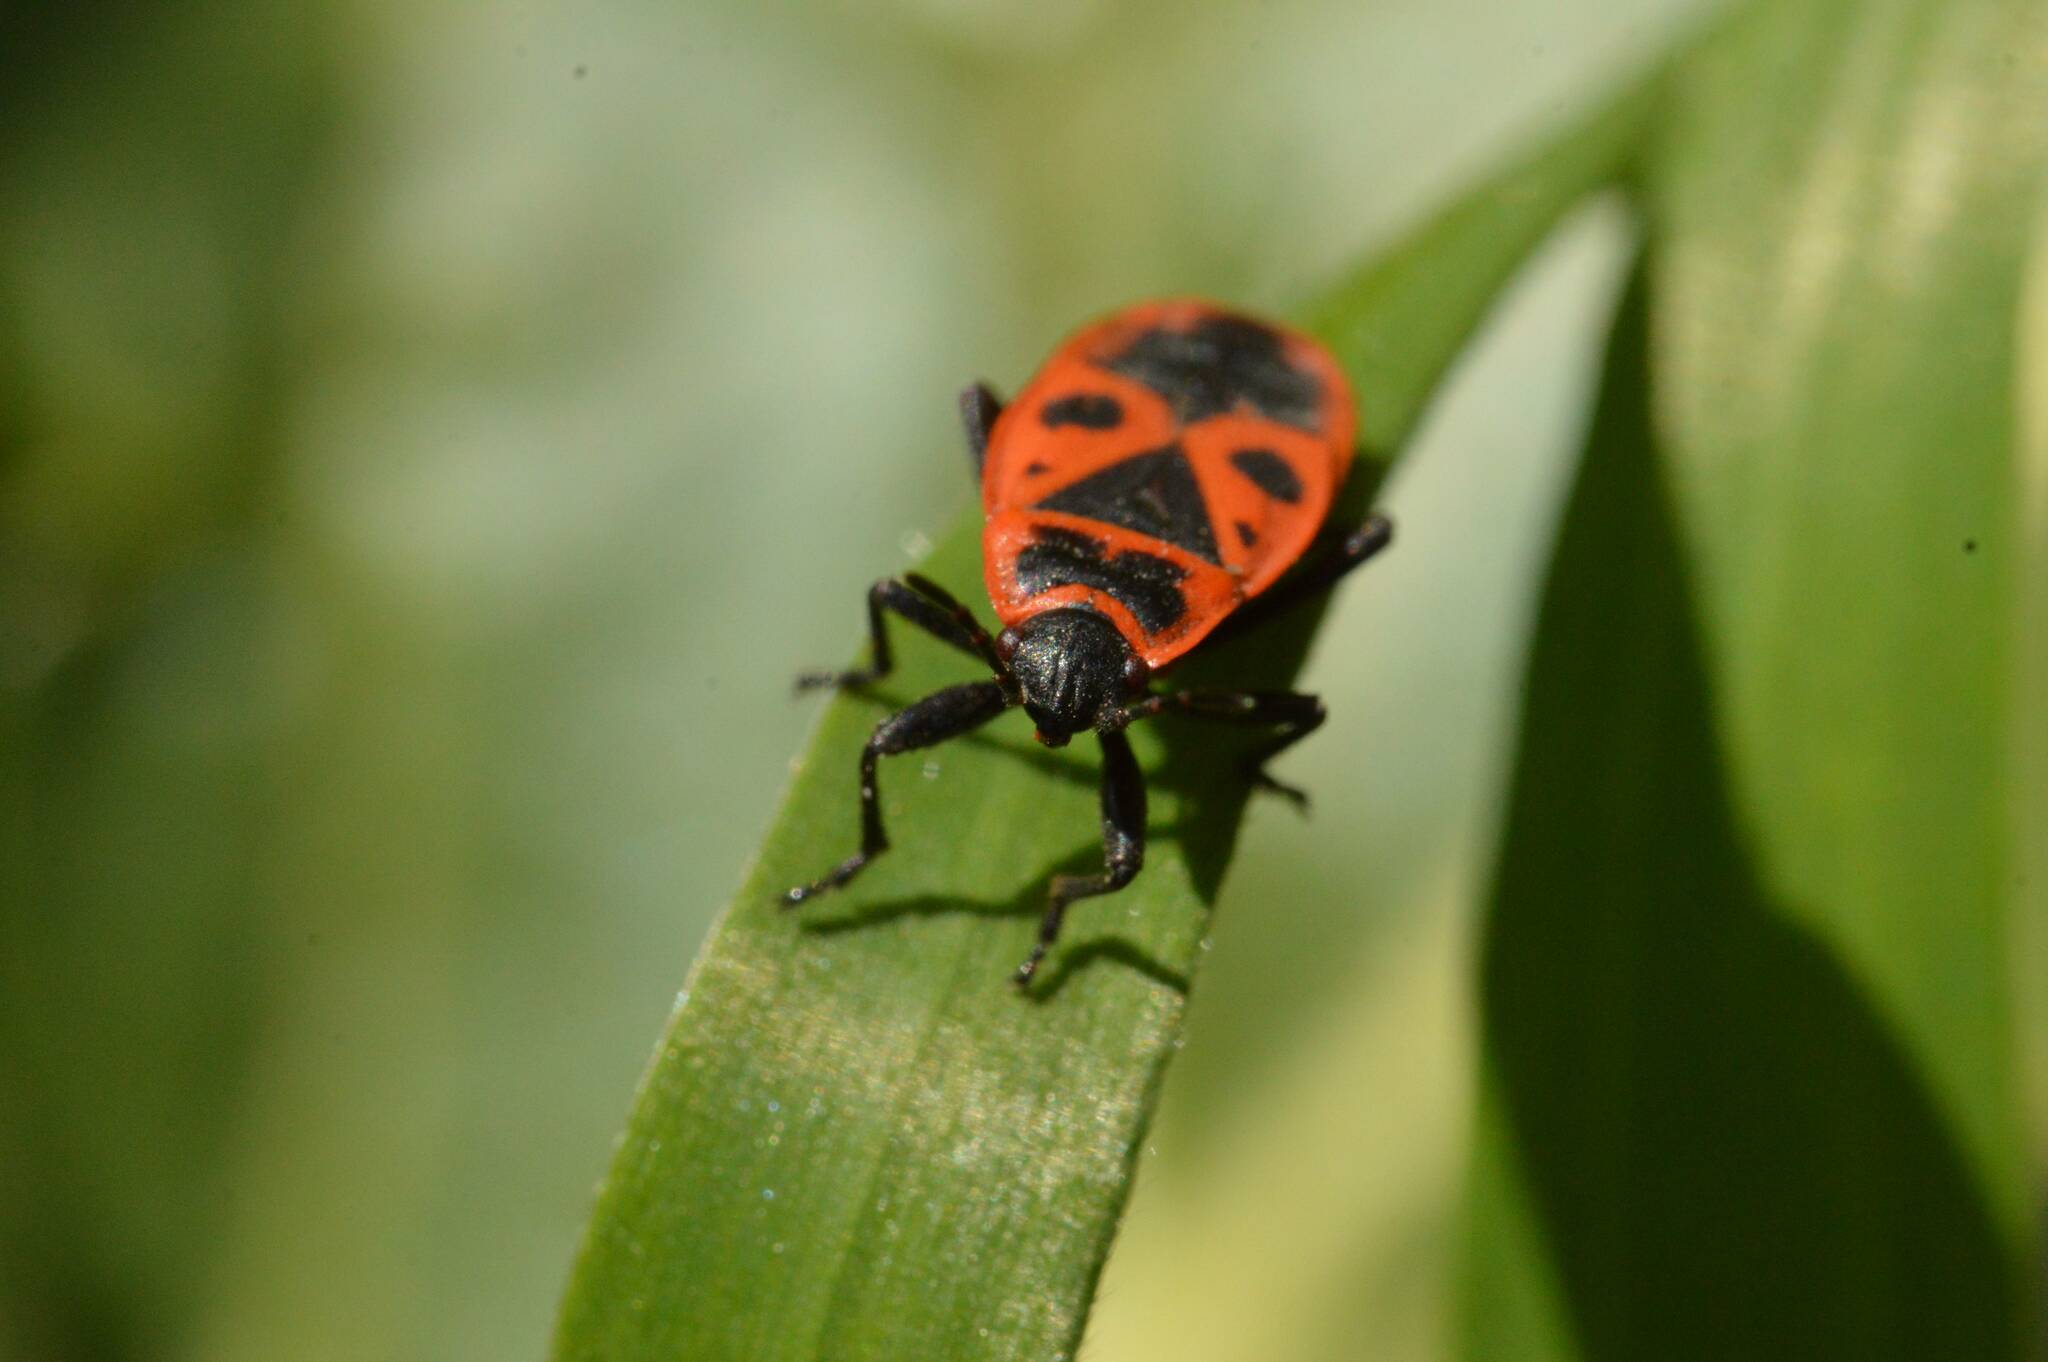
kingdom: Animalia
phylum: Arthropoda
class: Insecta
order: Hemiptera
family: Pyrrhocoridae
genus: Pyrrhocoris
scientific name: Pyrrhocoris apterus
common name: Firebug
